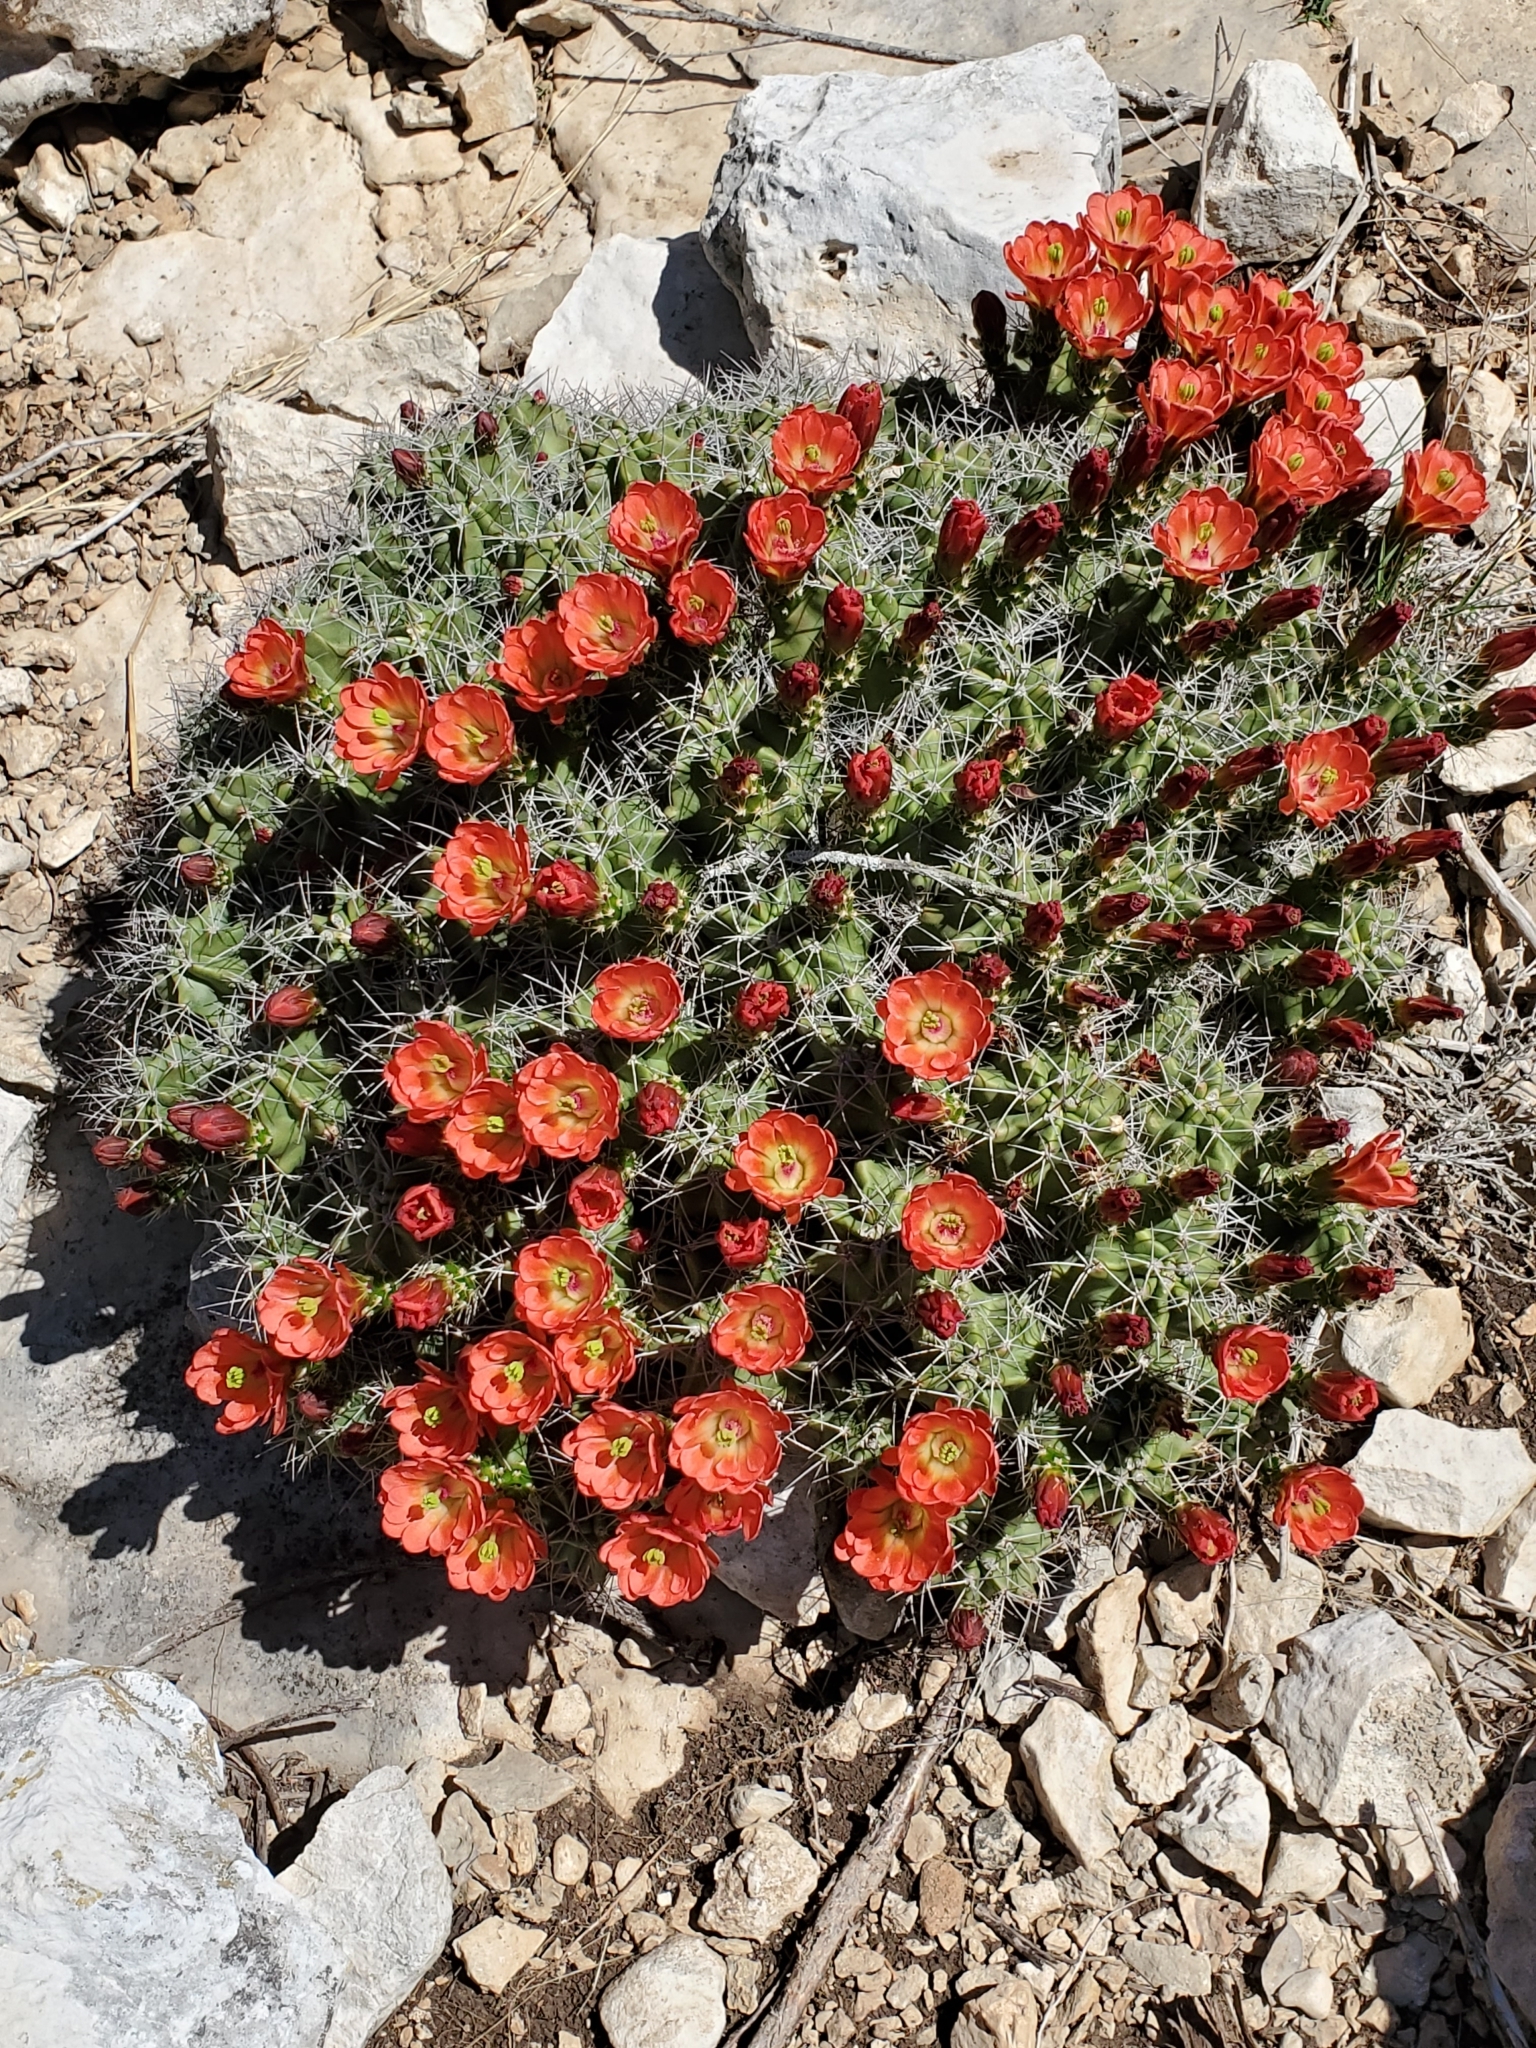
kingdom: Plantae
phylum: Tracheophyta
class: Magnoliopsida
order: Caryophyllales
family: Cactaceae
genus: Echinocereus
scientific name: Echinocereus coccineus
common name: Scarlet hedgehog cactus
